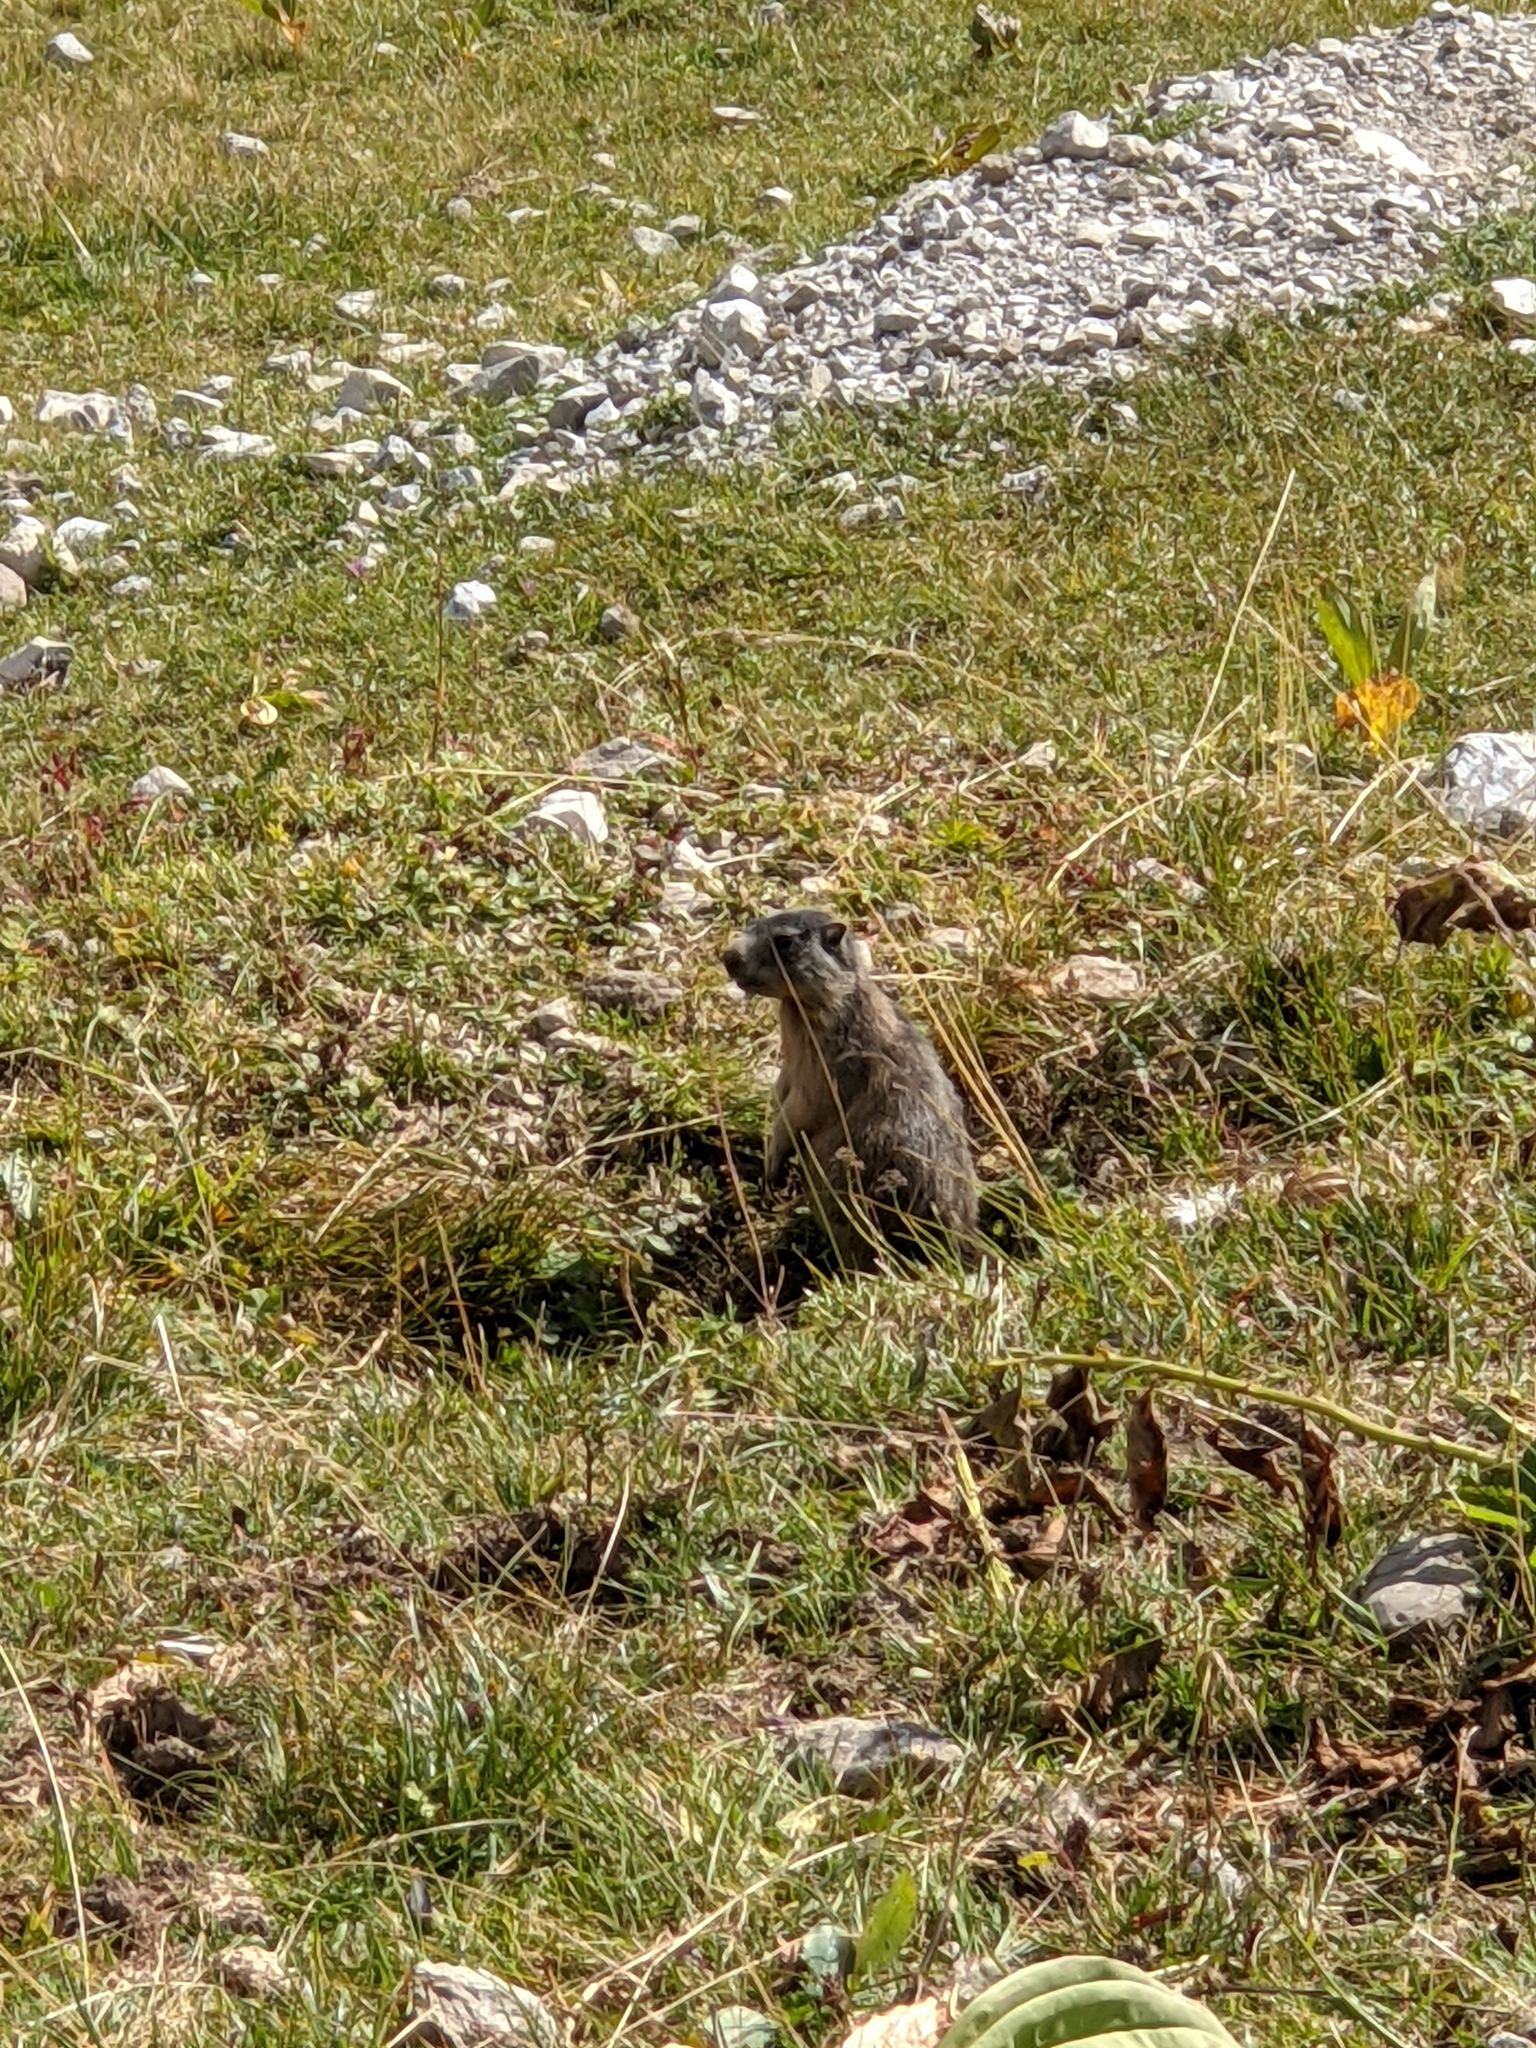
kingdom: Animalia
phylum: Chordata
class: Mammalia
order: Rodentia
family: Sciuridae
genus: Marmota
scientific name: Marmota marmota
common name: Alpine marmot
